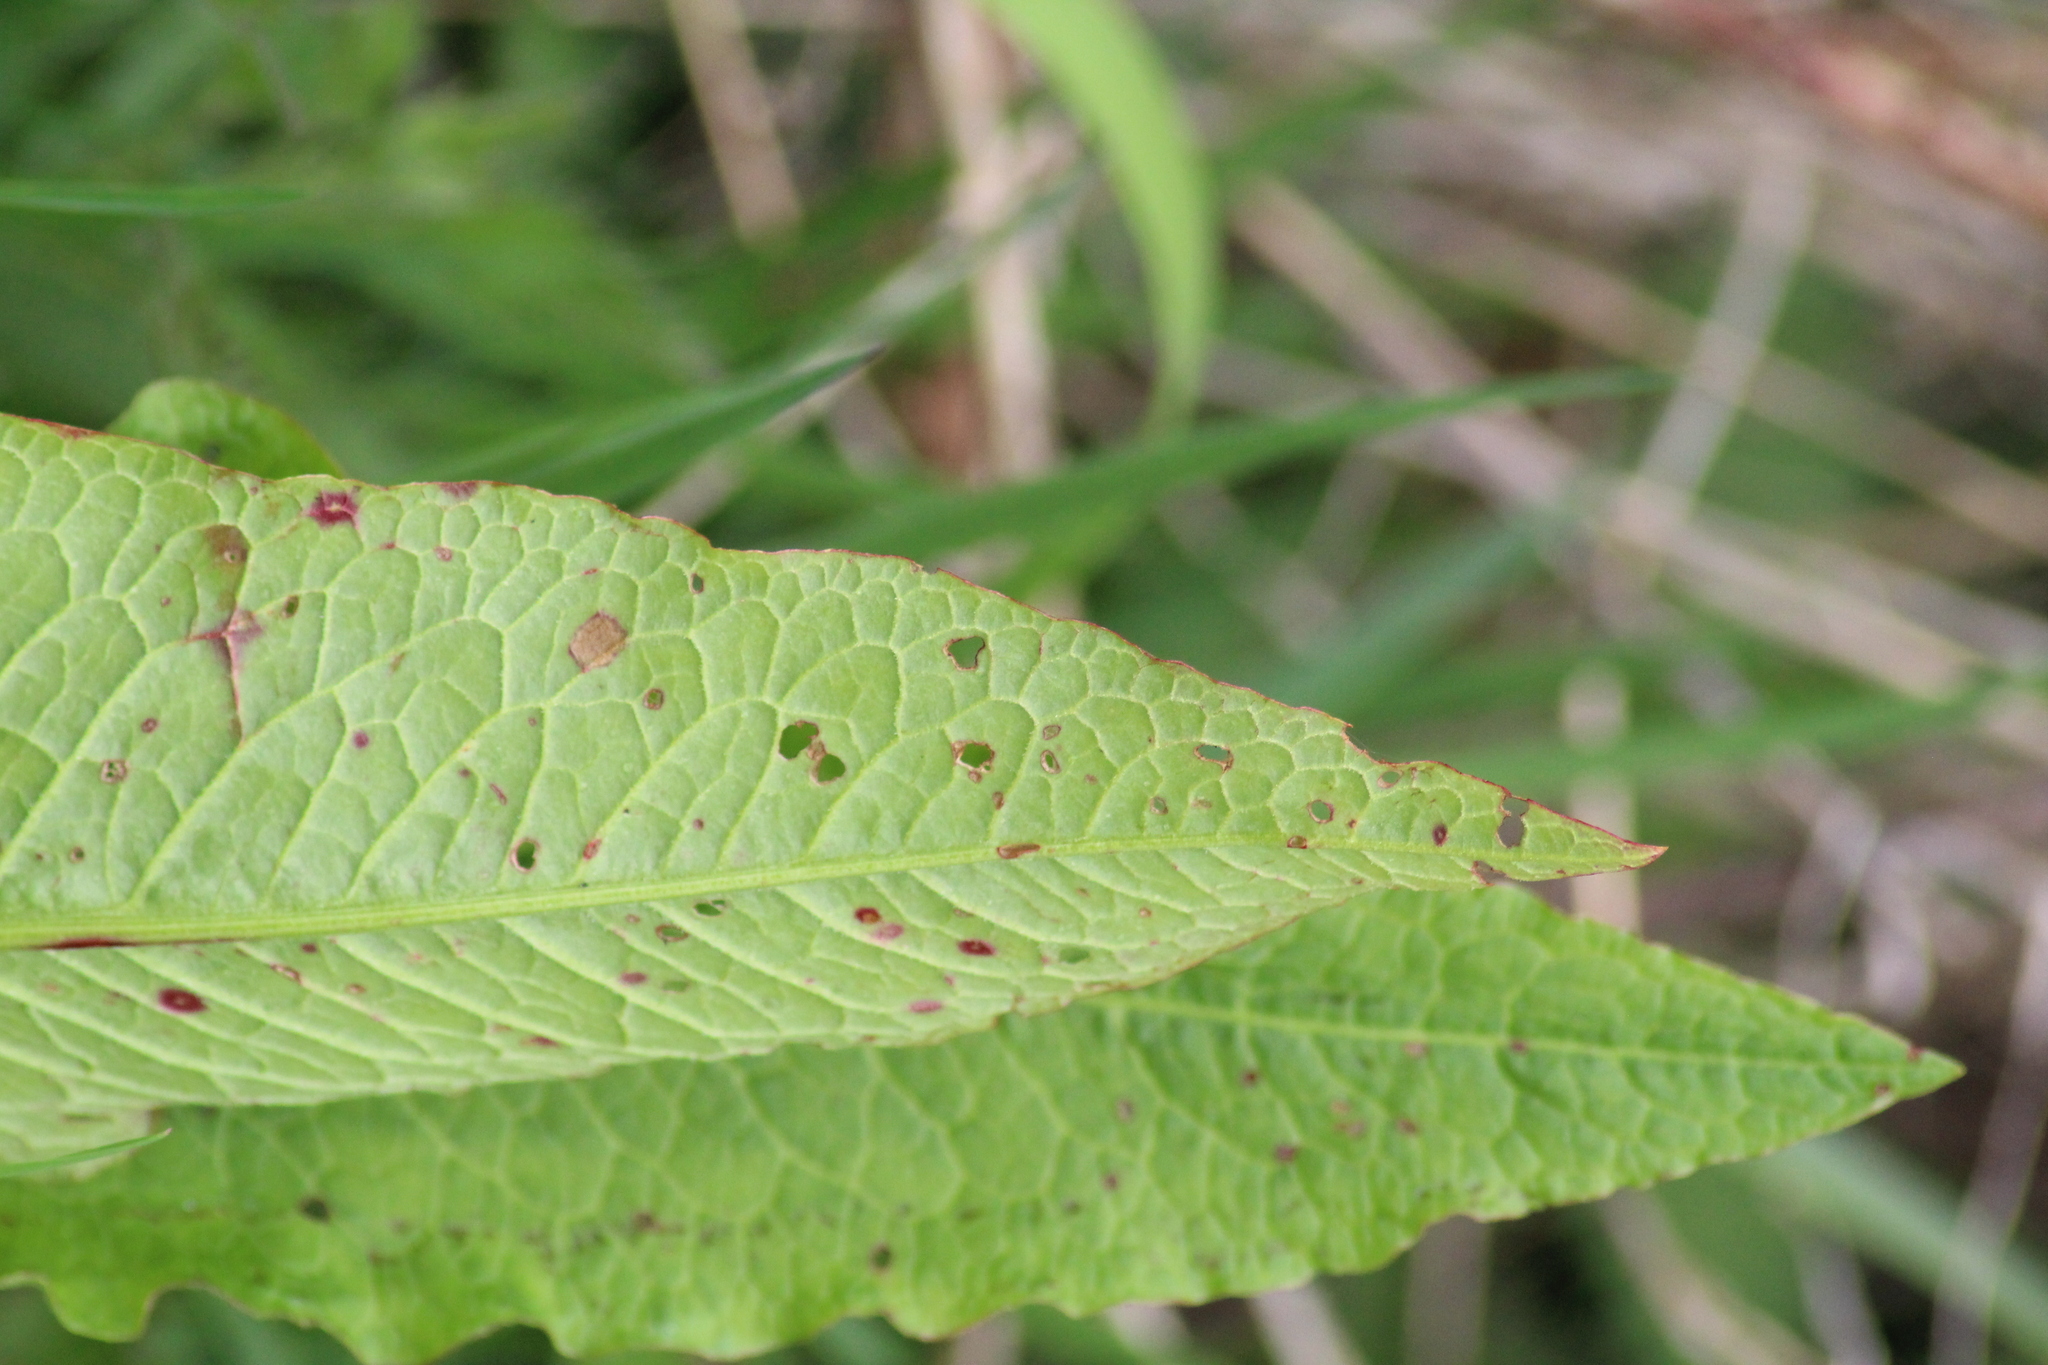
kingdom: Plantae
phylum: Tracheophyta
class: Magnoliopsida
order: Caryophyllales
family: Polygonaceae
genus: Rumex
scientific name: Rumex obtusifolius
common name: Bitter dock
